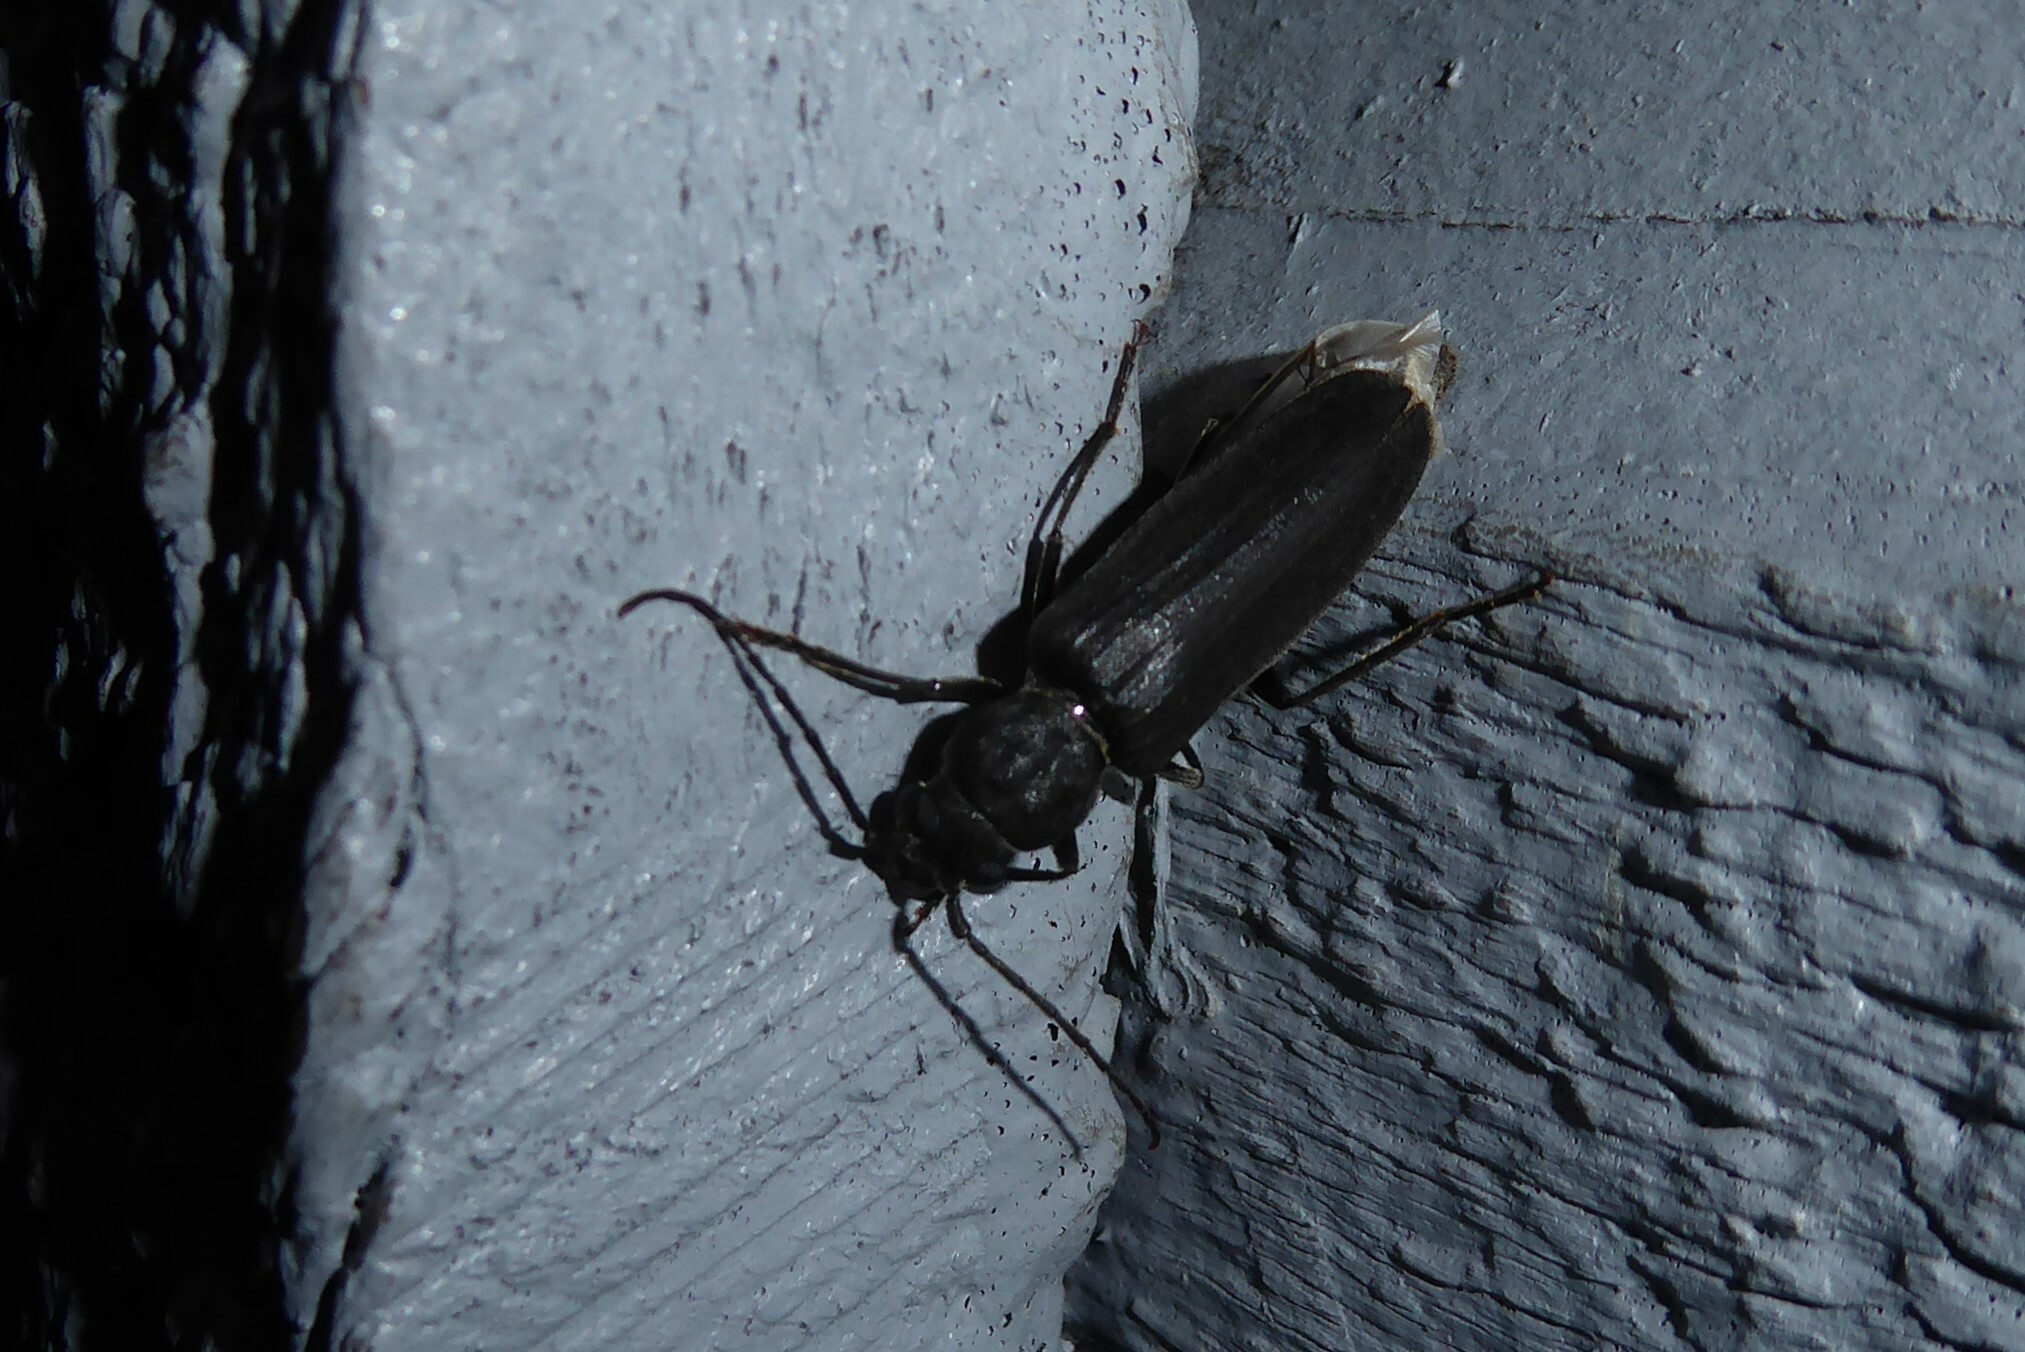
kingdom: Animalia
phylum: Arthropoda
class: Insecta
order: Coleoptera
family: Cerambycidae
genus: Arhopalus
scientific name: Arhopalus ferus
